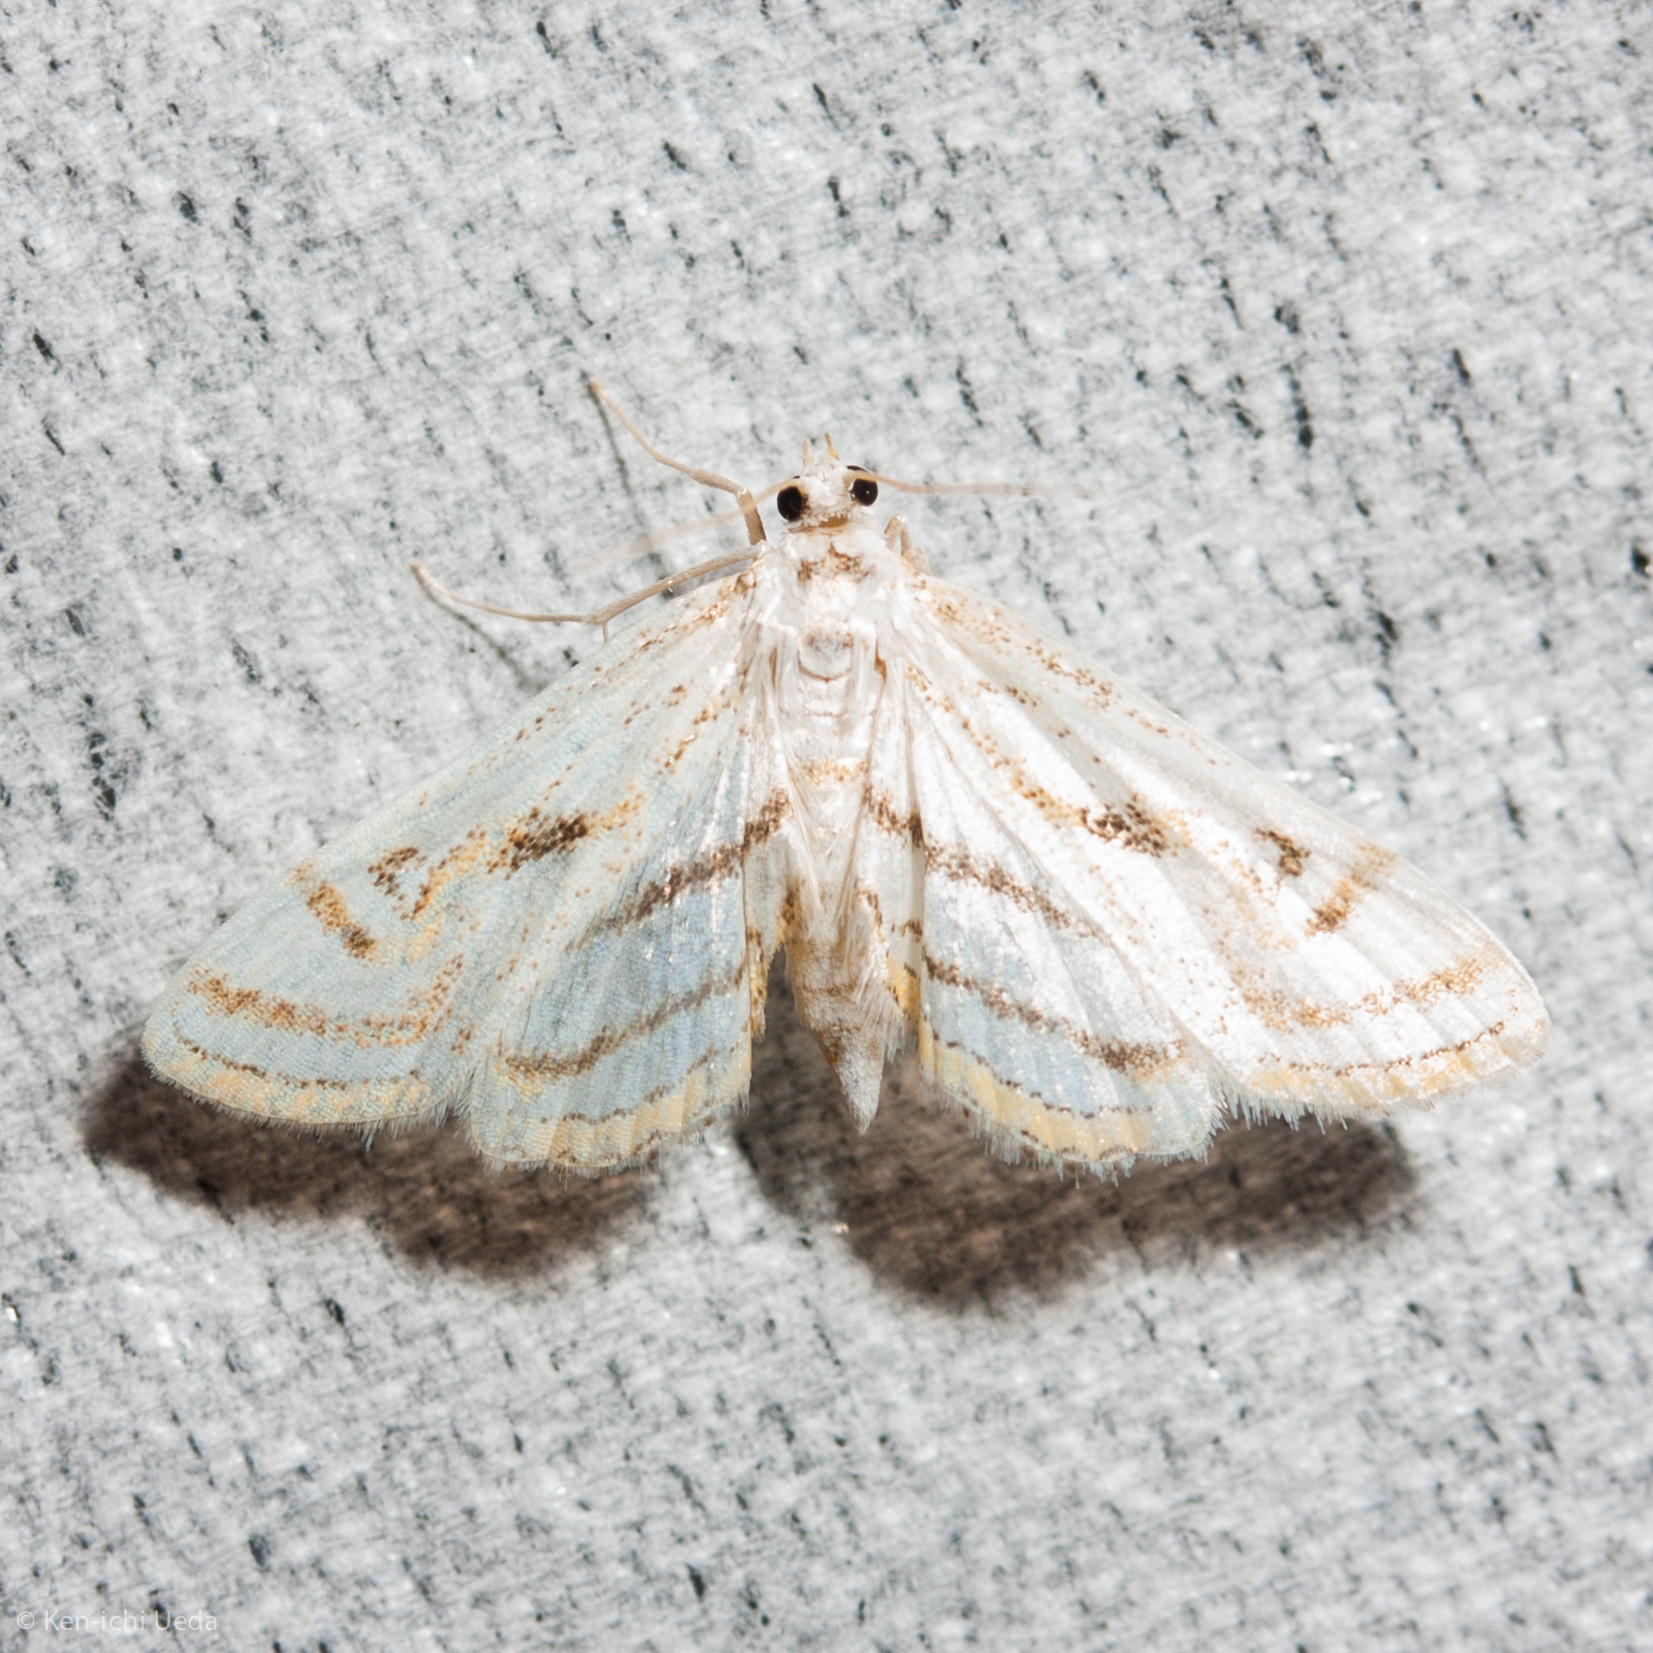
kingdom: Animalia
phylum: Arthropoda
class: Insecta
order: Lepidoptera
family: Crambidae
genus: Parapoynx
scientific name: Parapoynx badiusalis
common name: Chestnut-marked pondweed moth
